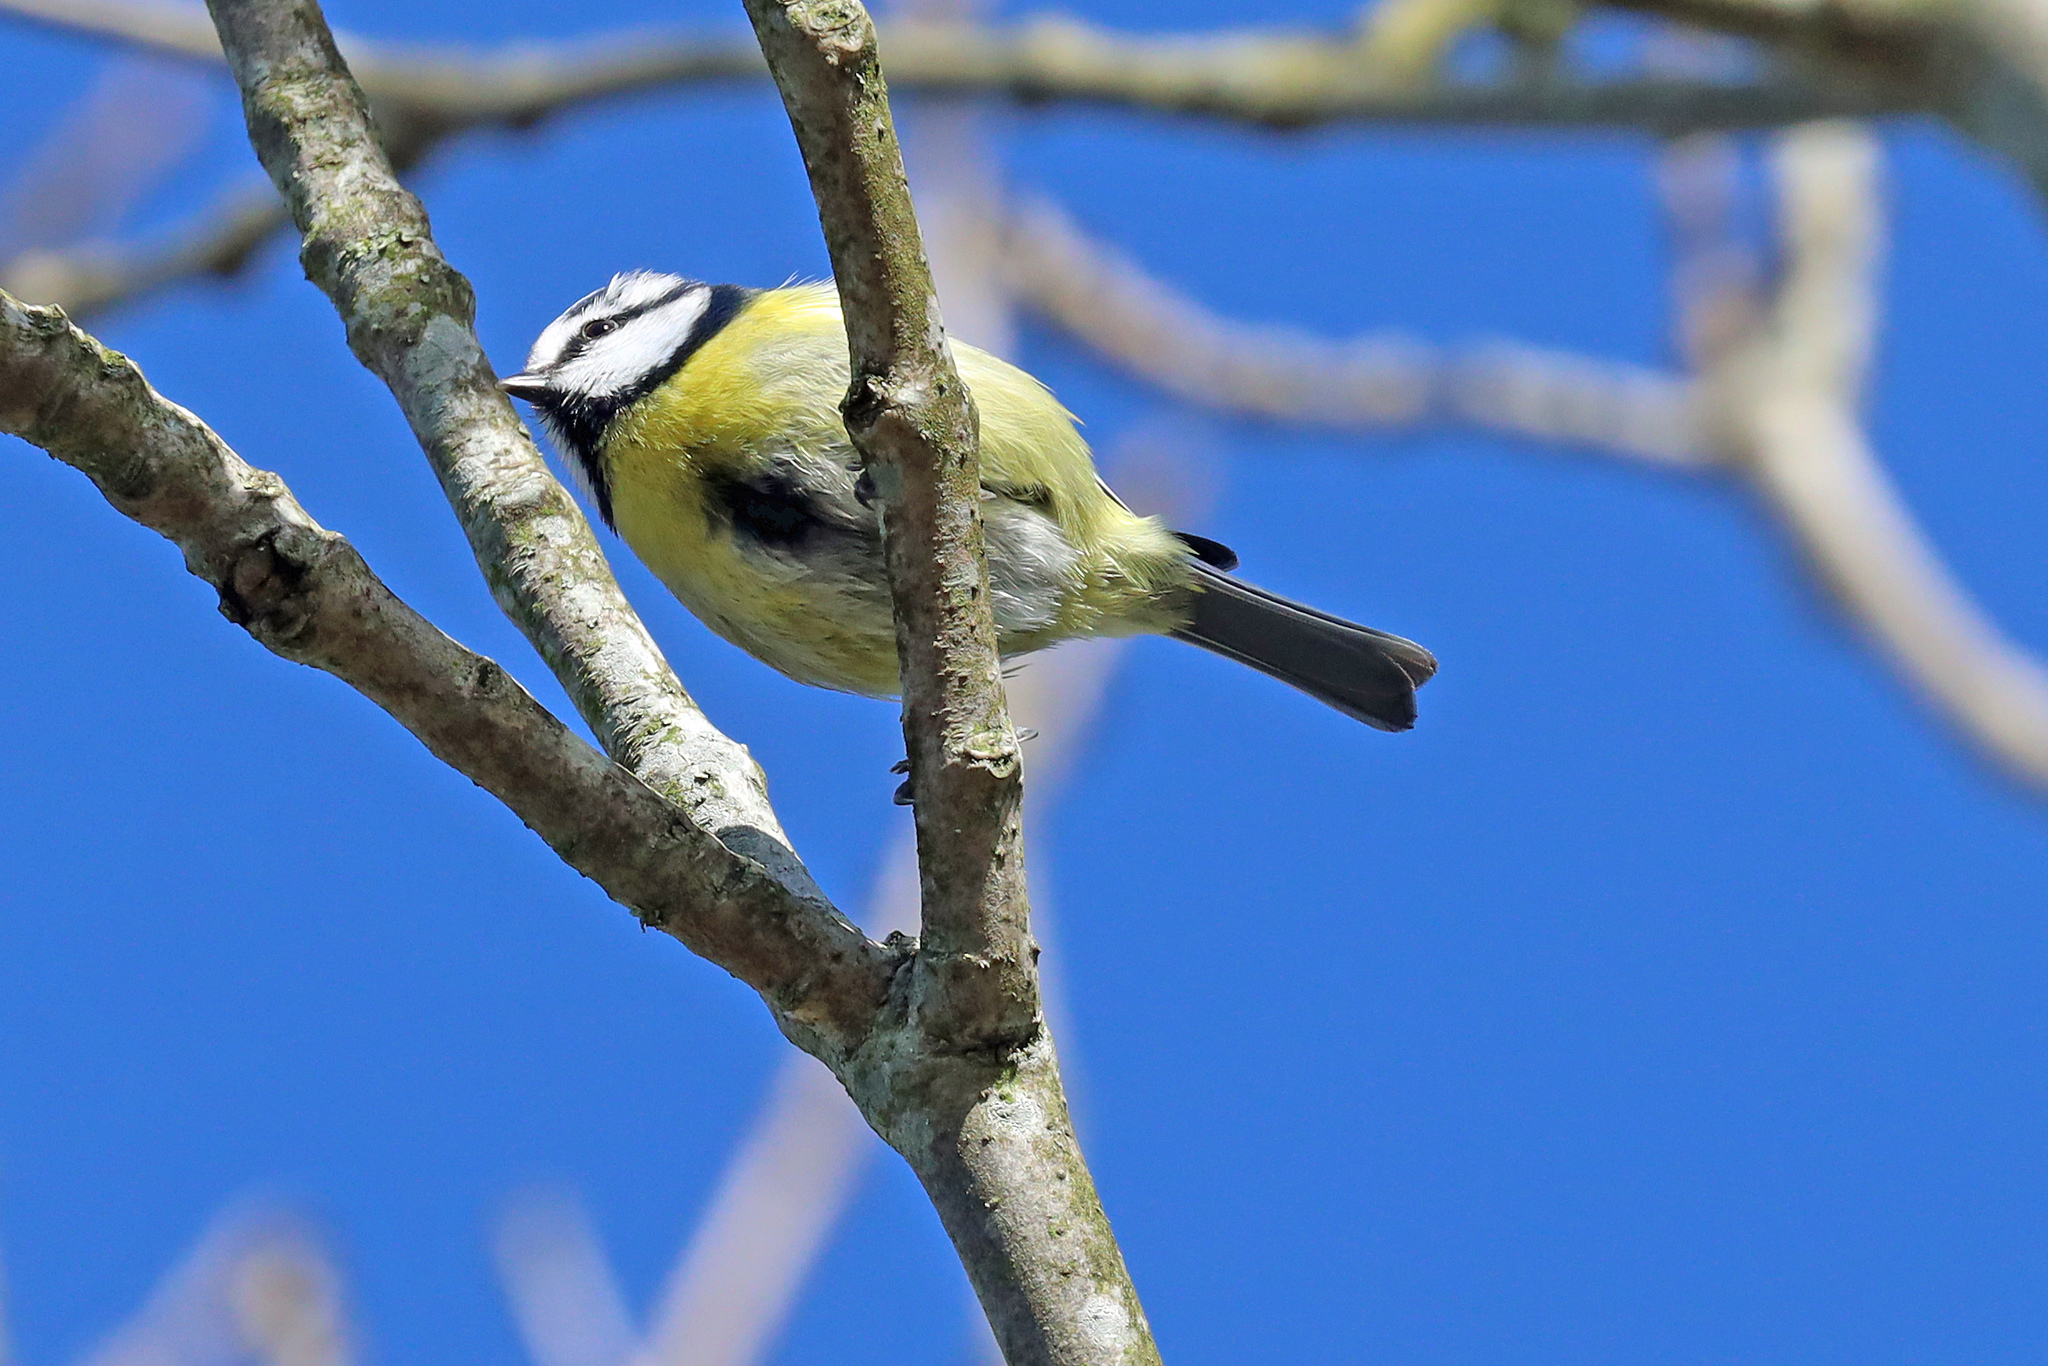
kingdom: Animalia
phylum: Chordata
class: Aves
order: Passeriformes
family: Paridae
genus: Cyanistes
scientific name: Cyanistes caeruleus
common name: Eurasian blue tit
